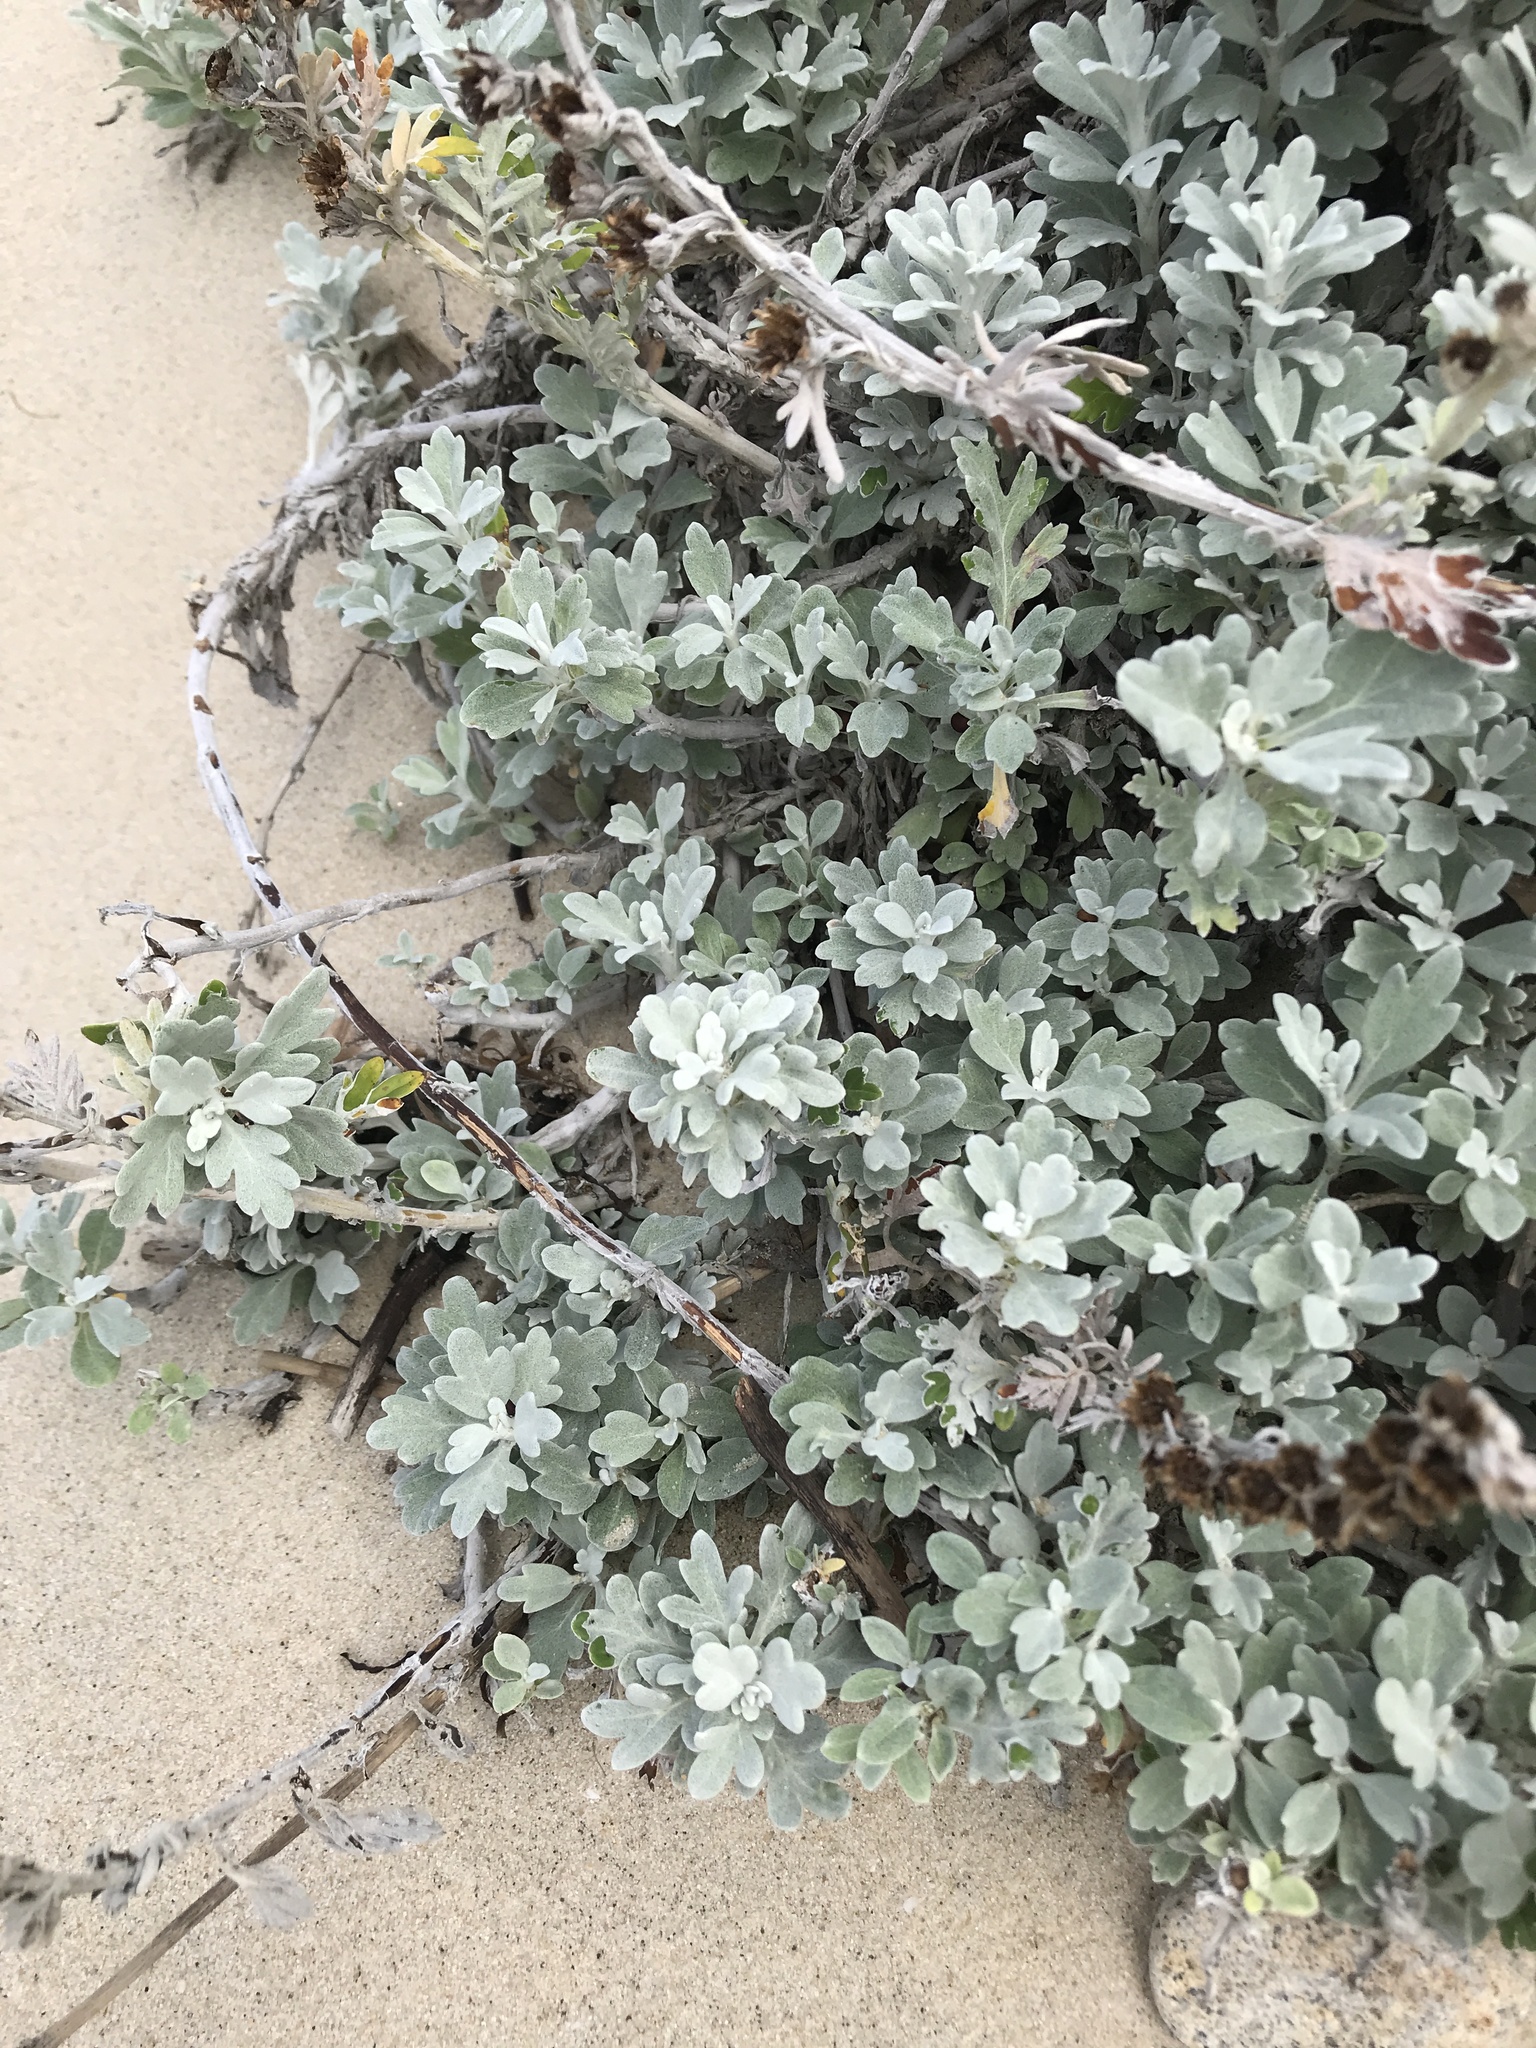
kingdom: Plantae
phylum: Tracheophyta
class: Magnoliopsida
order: Asterales
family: Asteraceae
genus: Artemisia
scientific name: Artemisia stelleriana
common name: Beach wormwood
